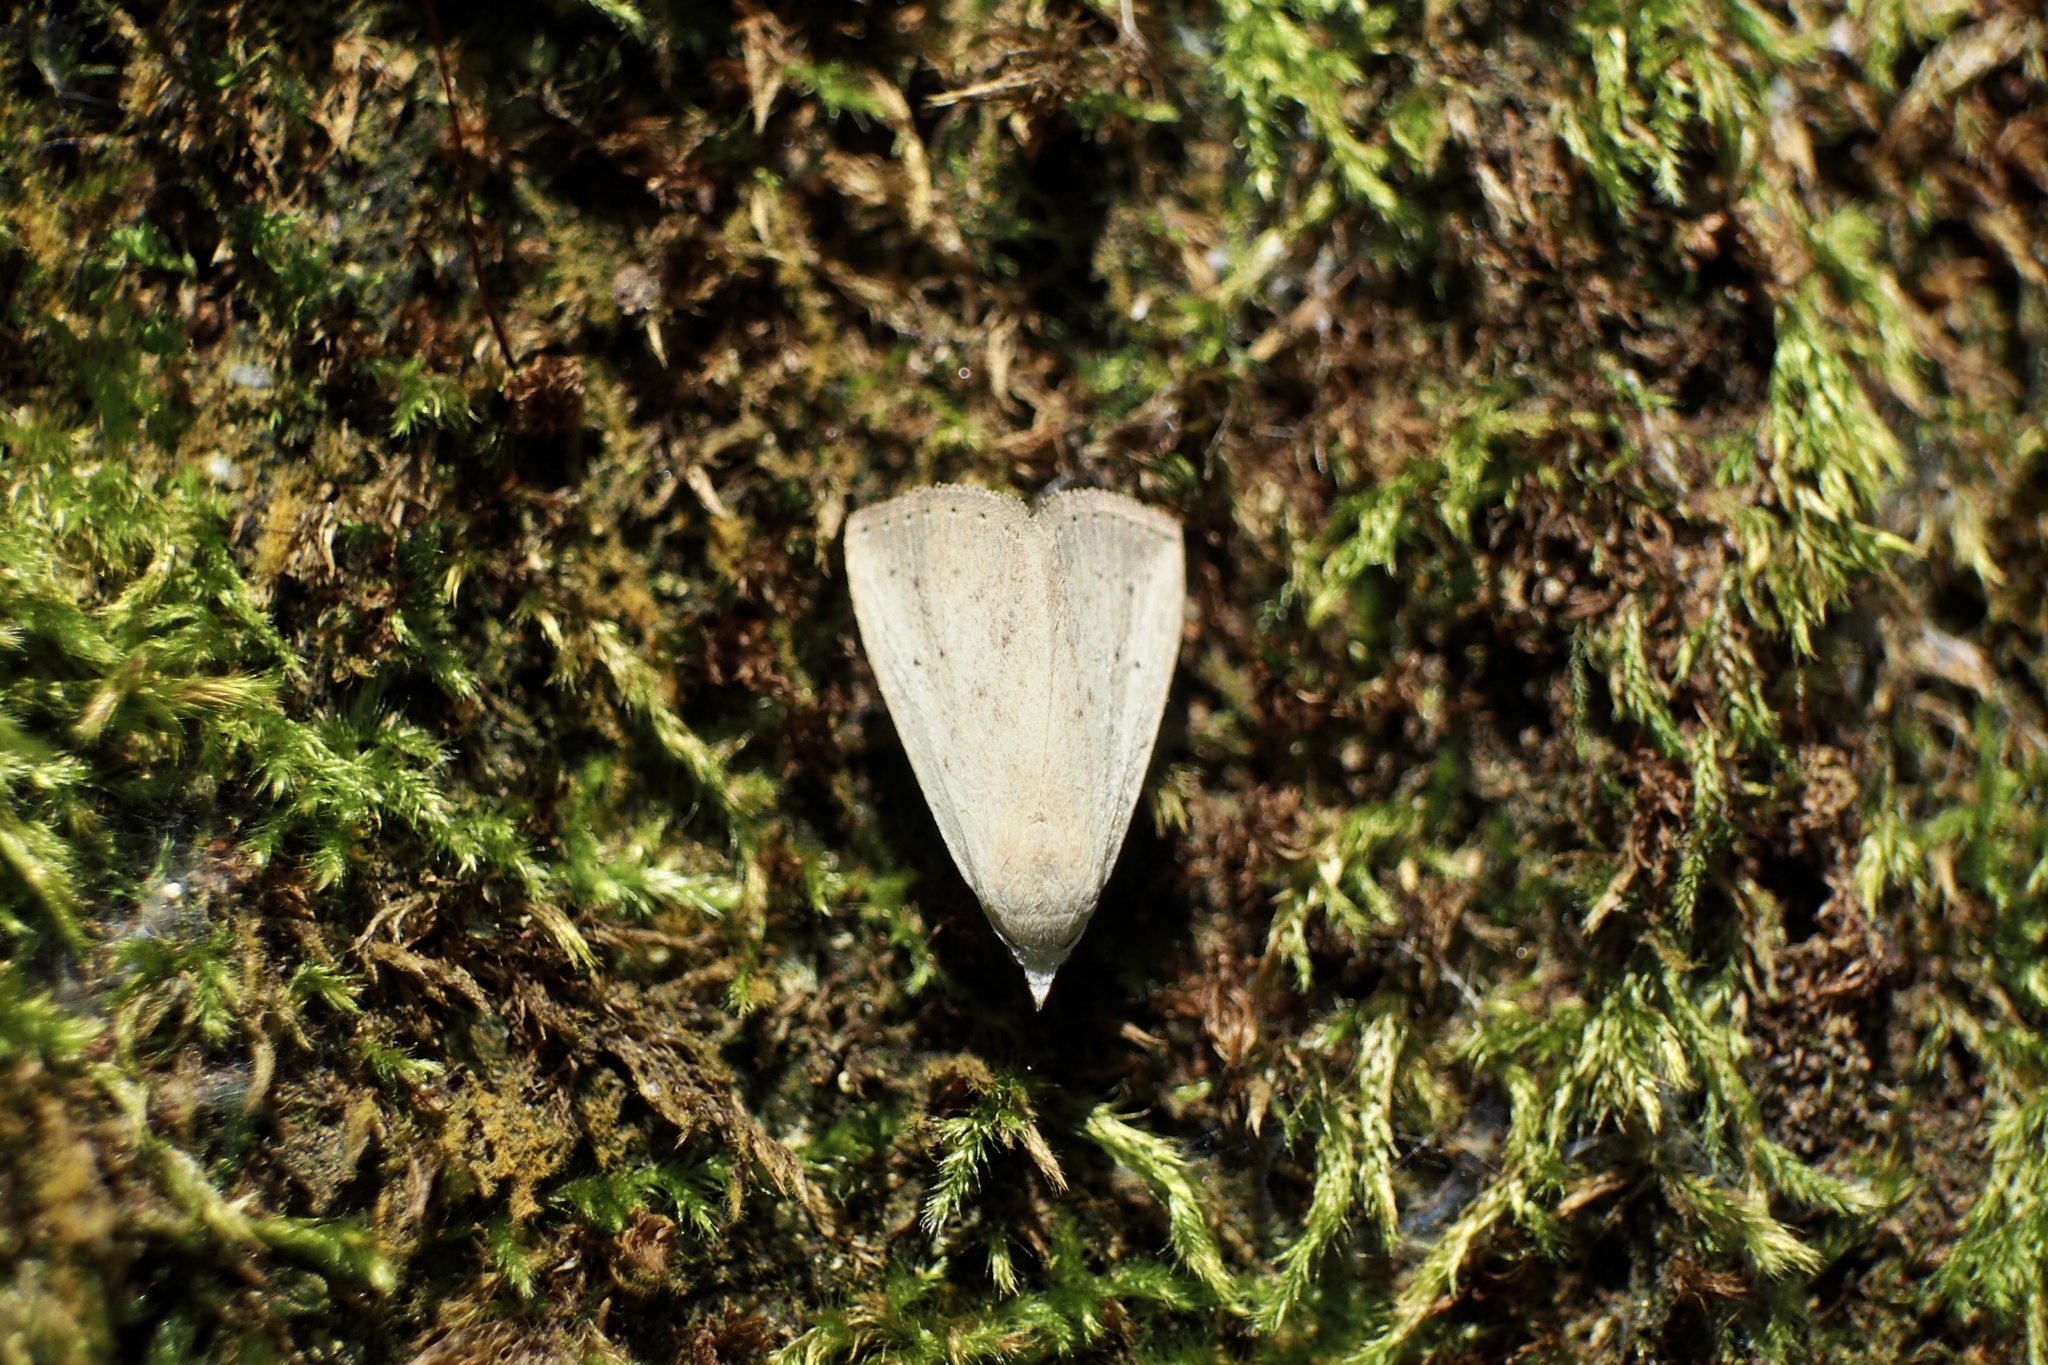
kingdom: Animalia
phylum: Arthropoda
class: Insecta
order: Lepidoptera
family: Erebidae
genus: Rivula
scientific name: Rivula aequalis
